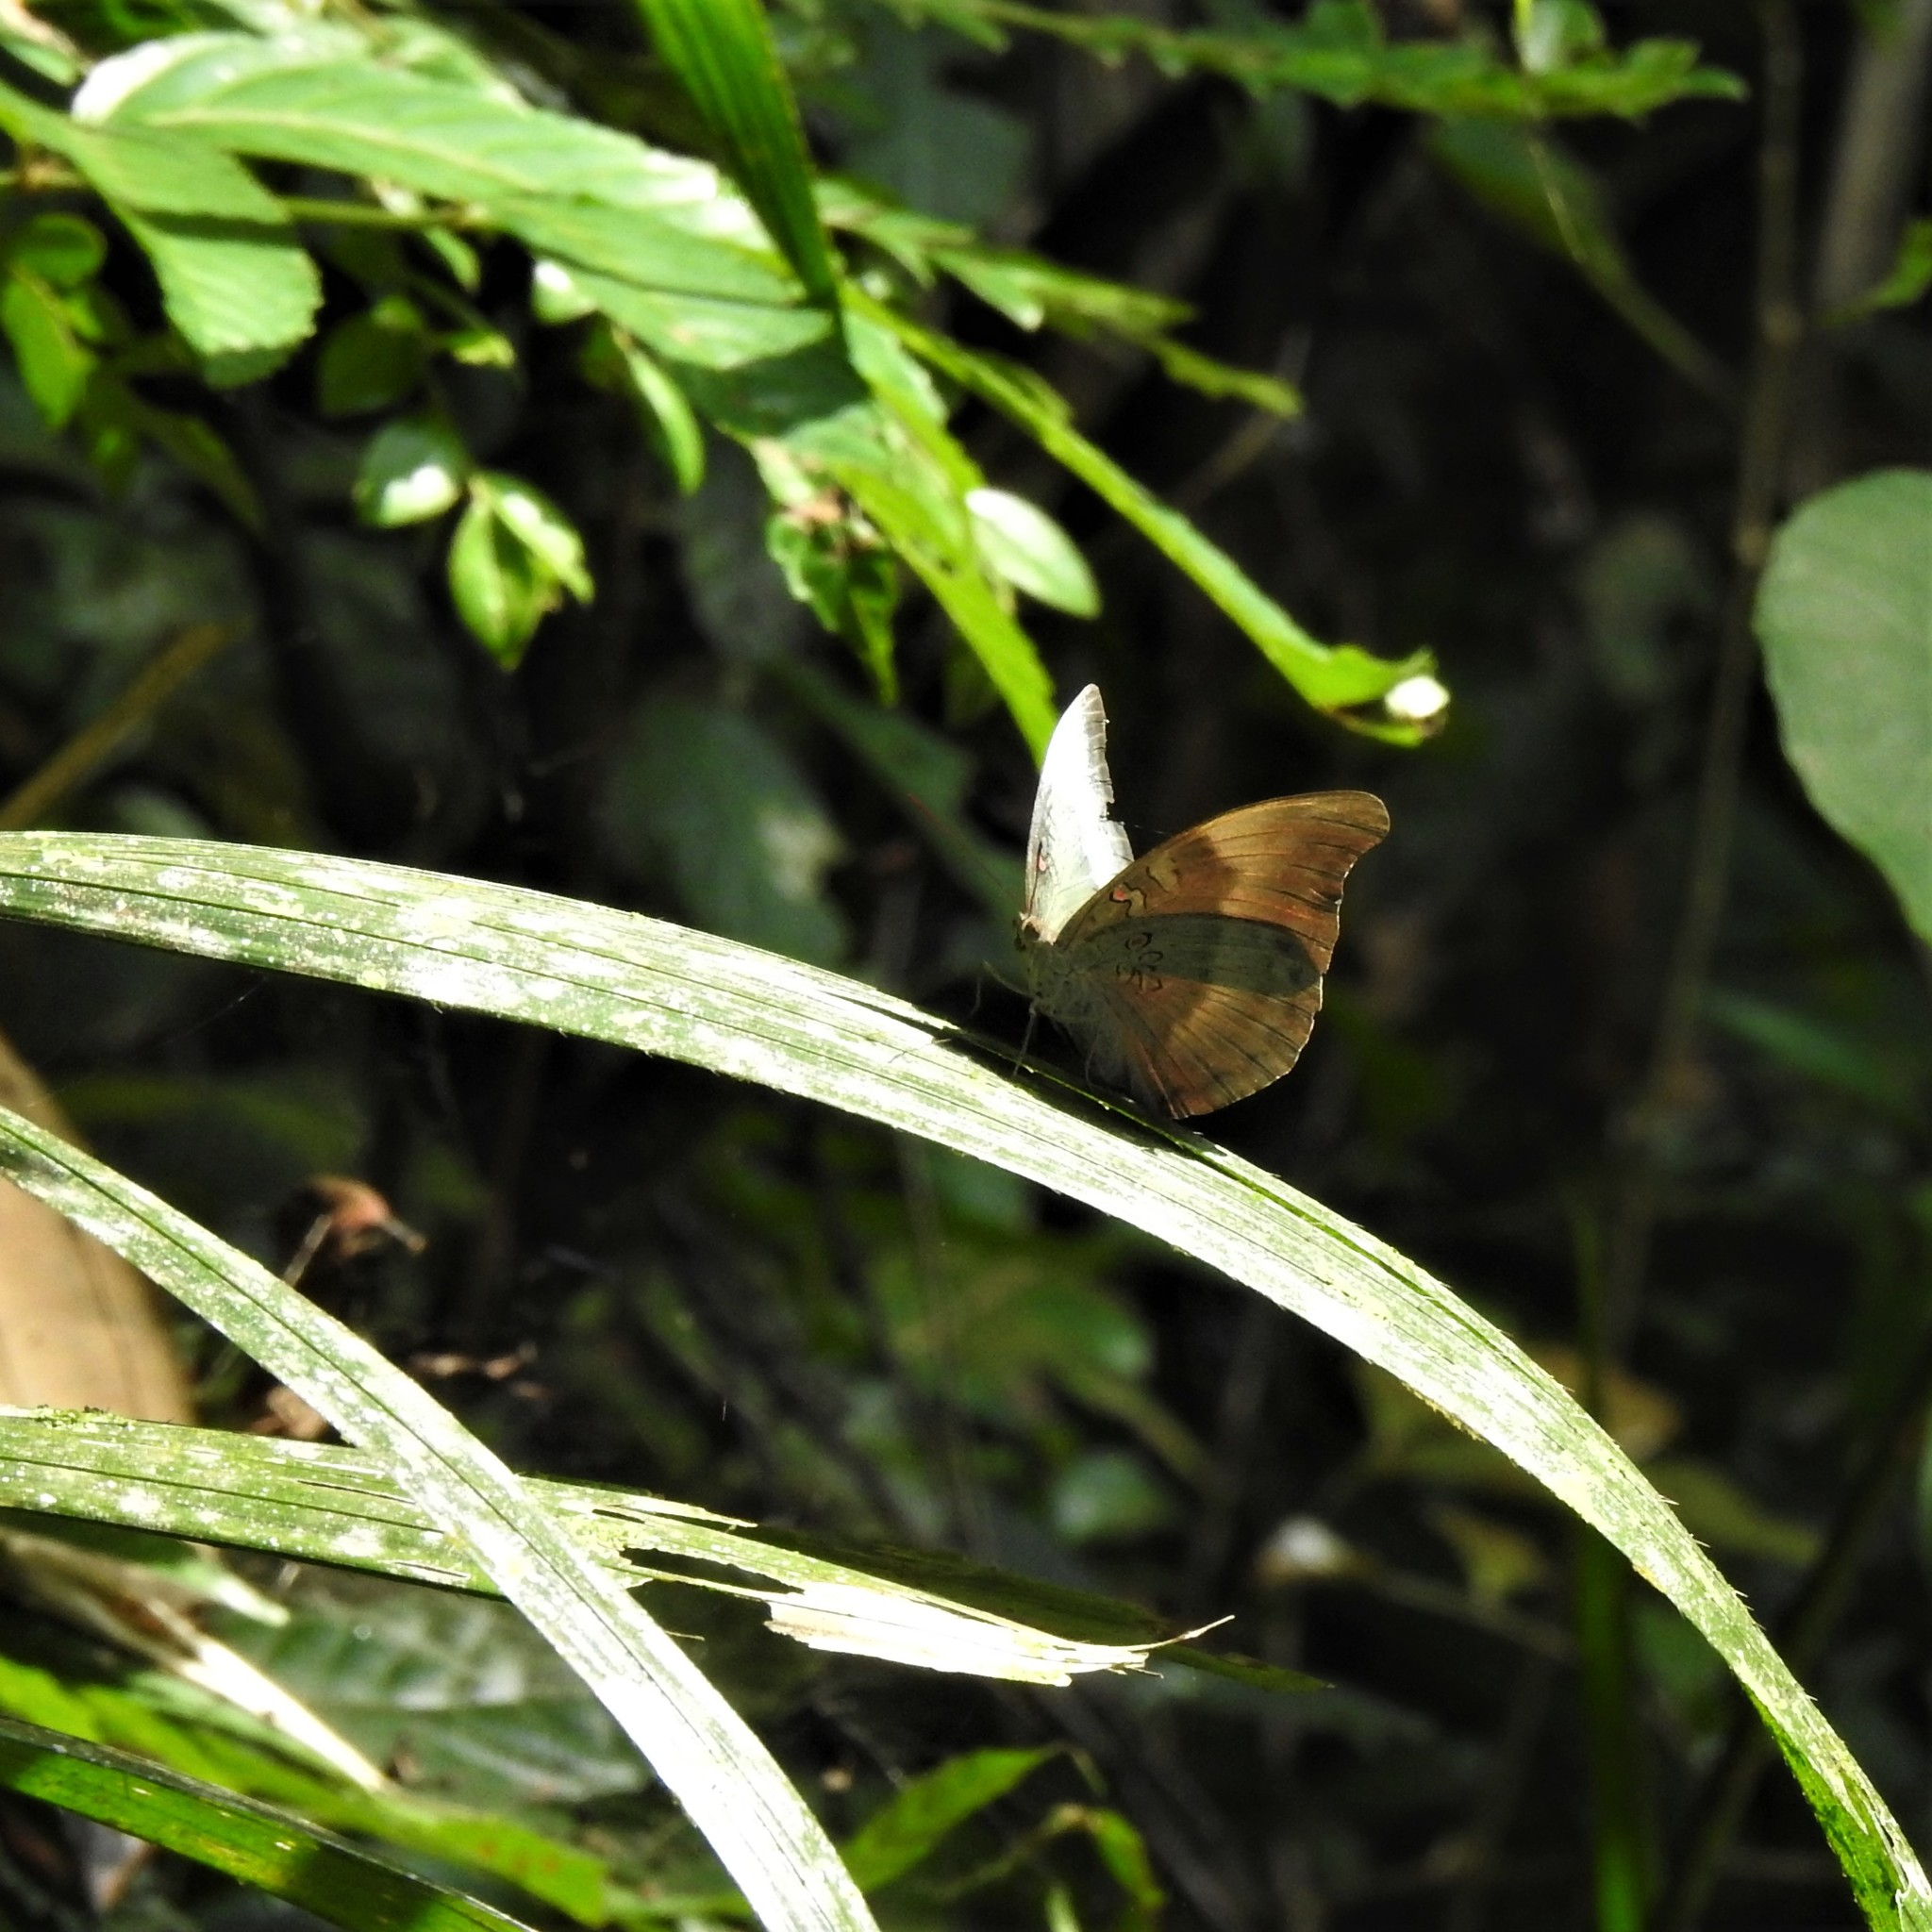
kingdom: Animalia
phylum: Arthropoda
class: Insecta
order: Lepidoptera
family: Nymphalidae
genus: Euthalia
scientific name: Euthalia aconthea
